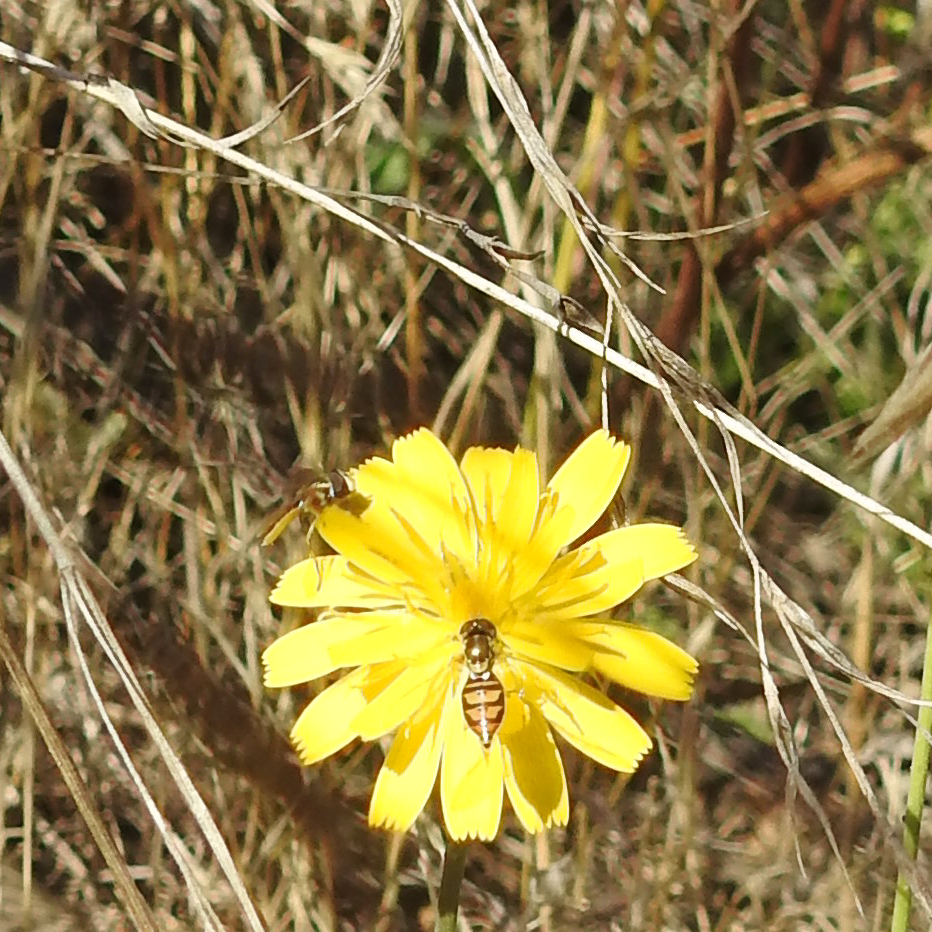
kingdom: Animalia
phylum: Arthropoda
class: Insecta
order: Diptera
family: Syrphidae
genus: Toxomerus
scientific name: Toxomerus marginatus
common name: Syrphid fly
